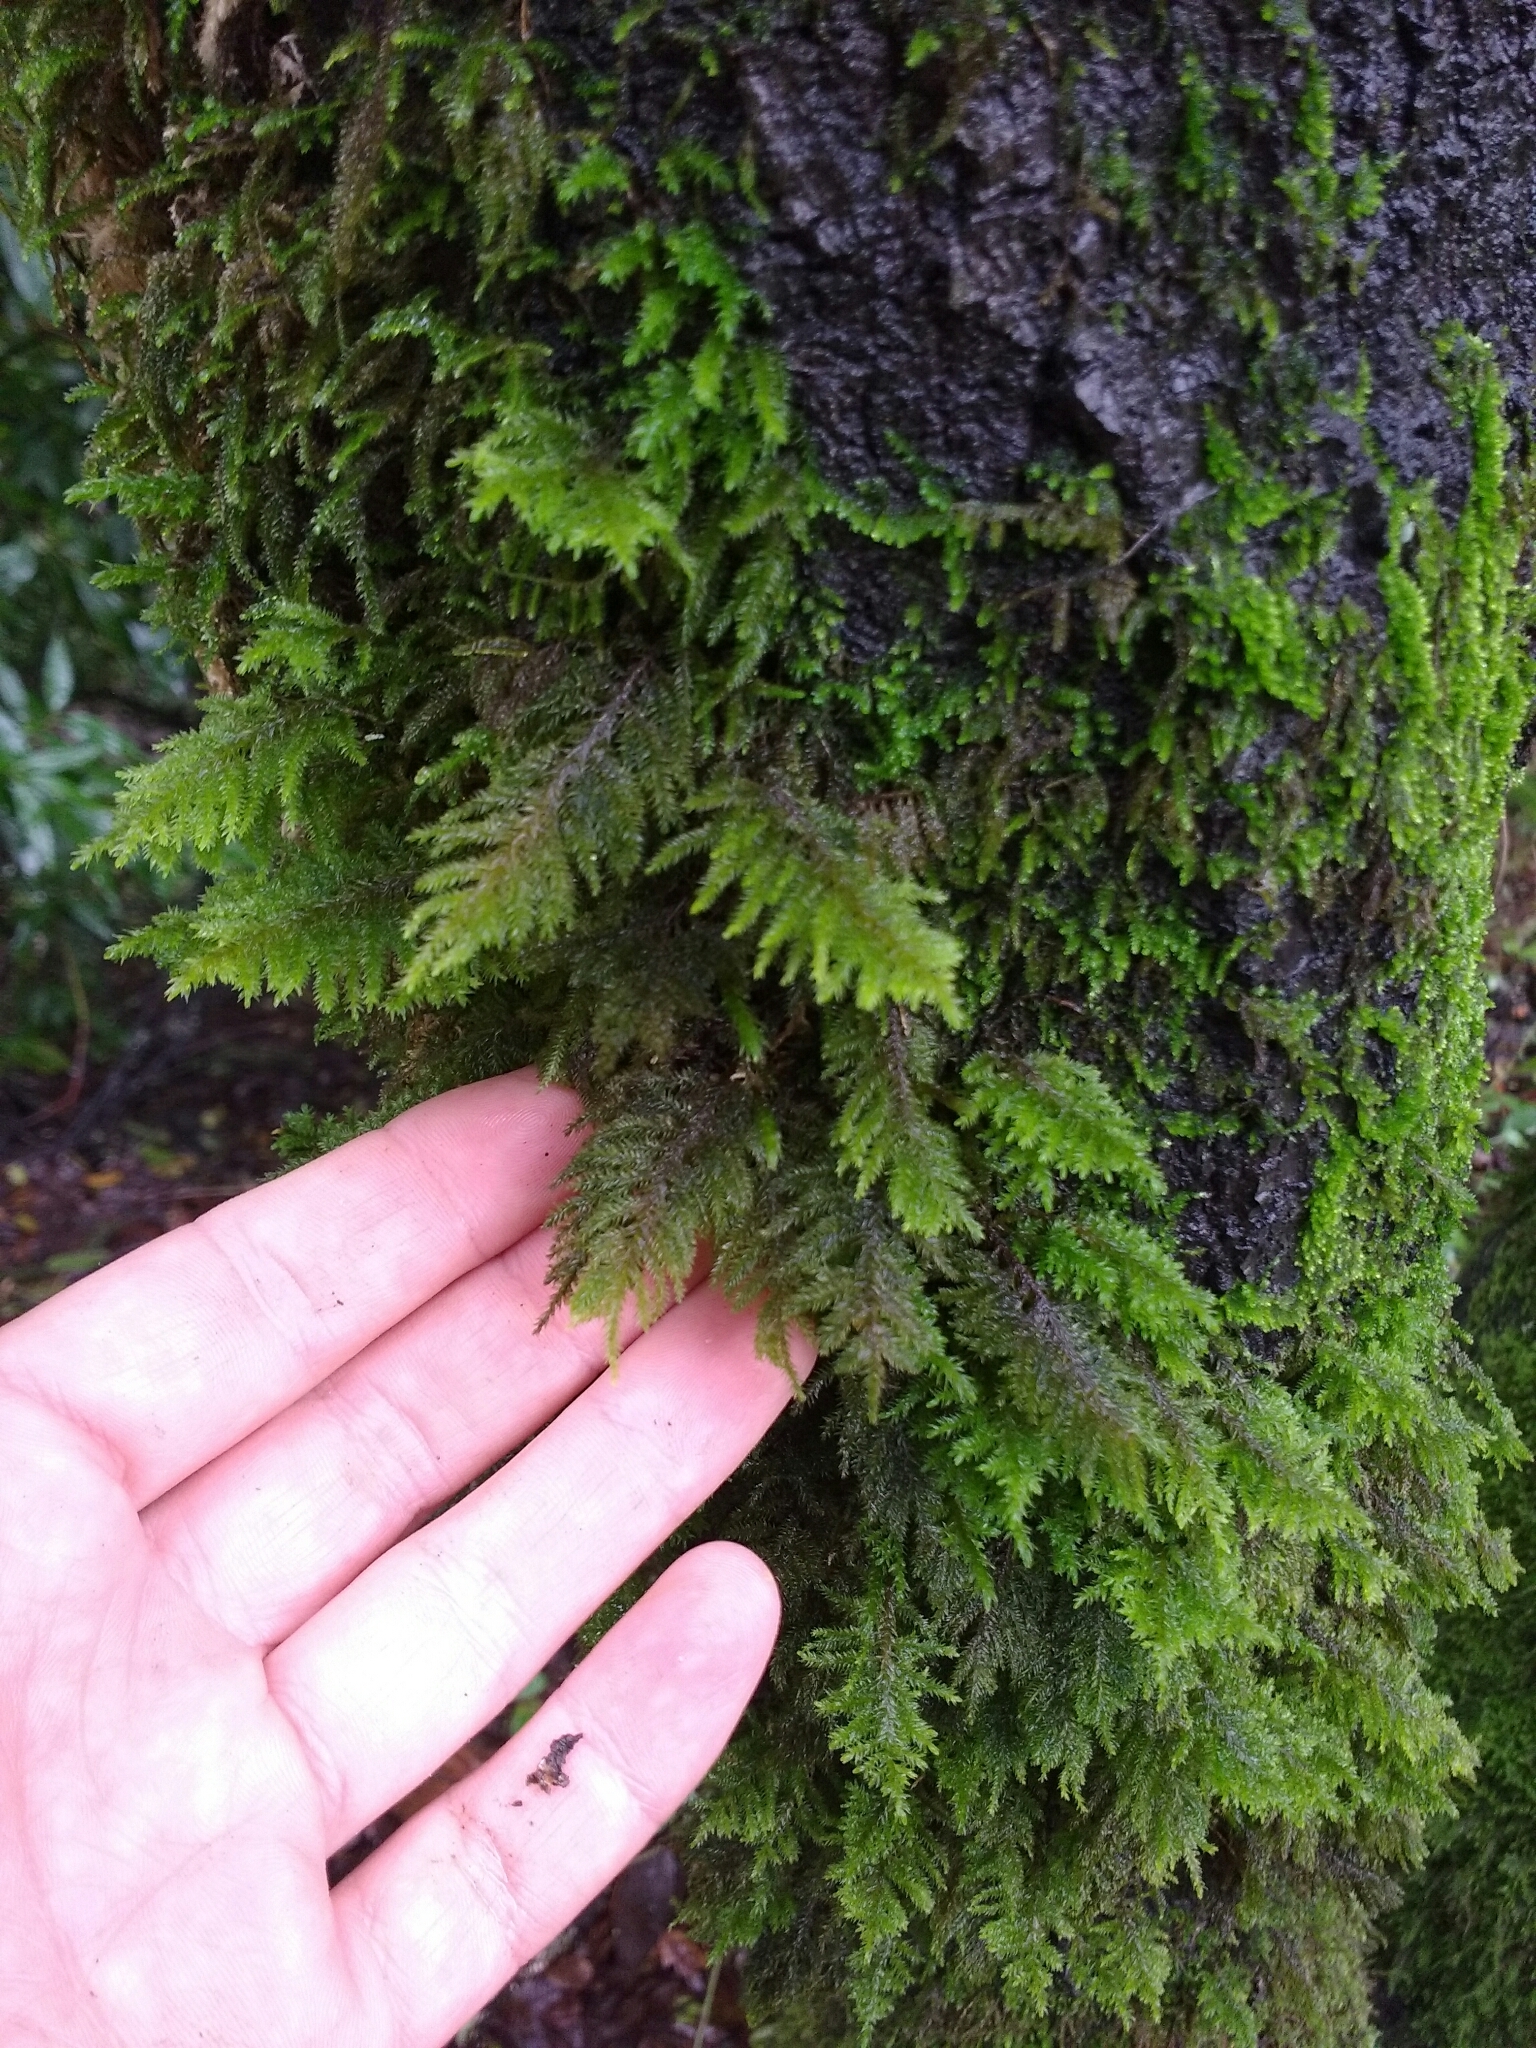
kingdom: Plantae
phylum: Bryophyta
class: Bryopsida
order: Hypnales
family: Cryphaeaceae
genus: Dendroalsia
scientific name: Dendroalsia abietina
